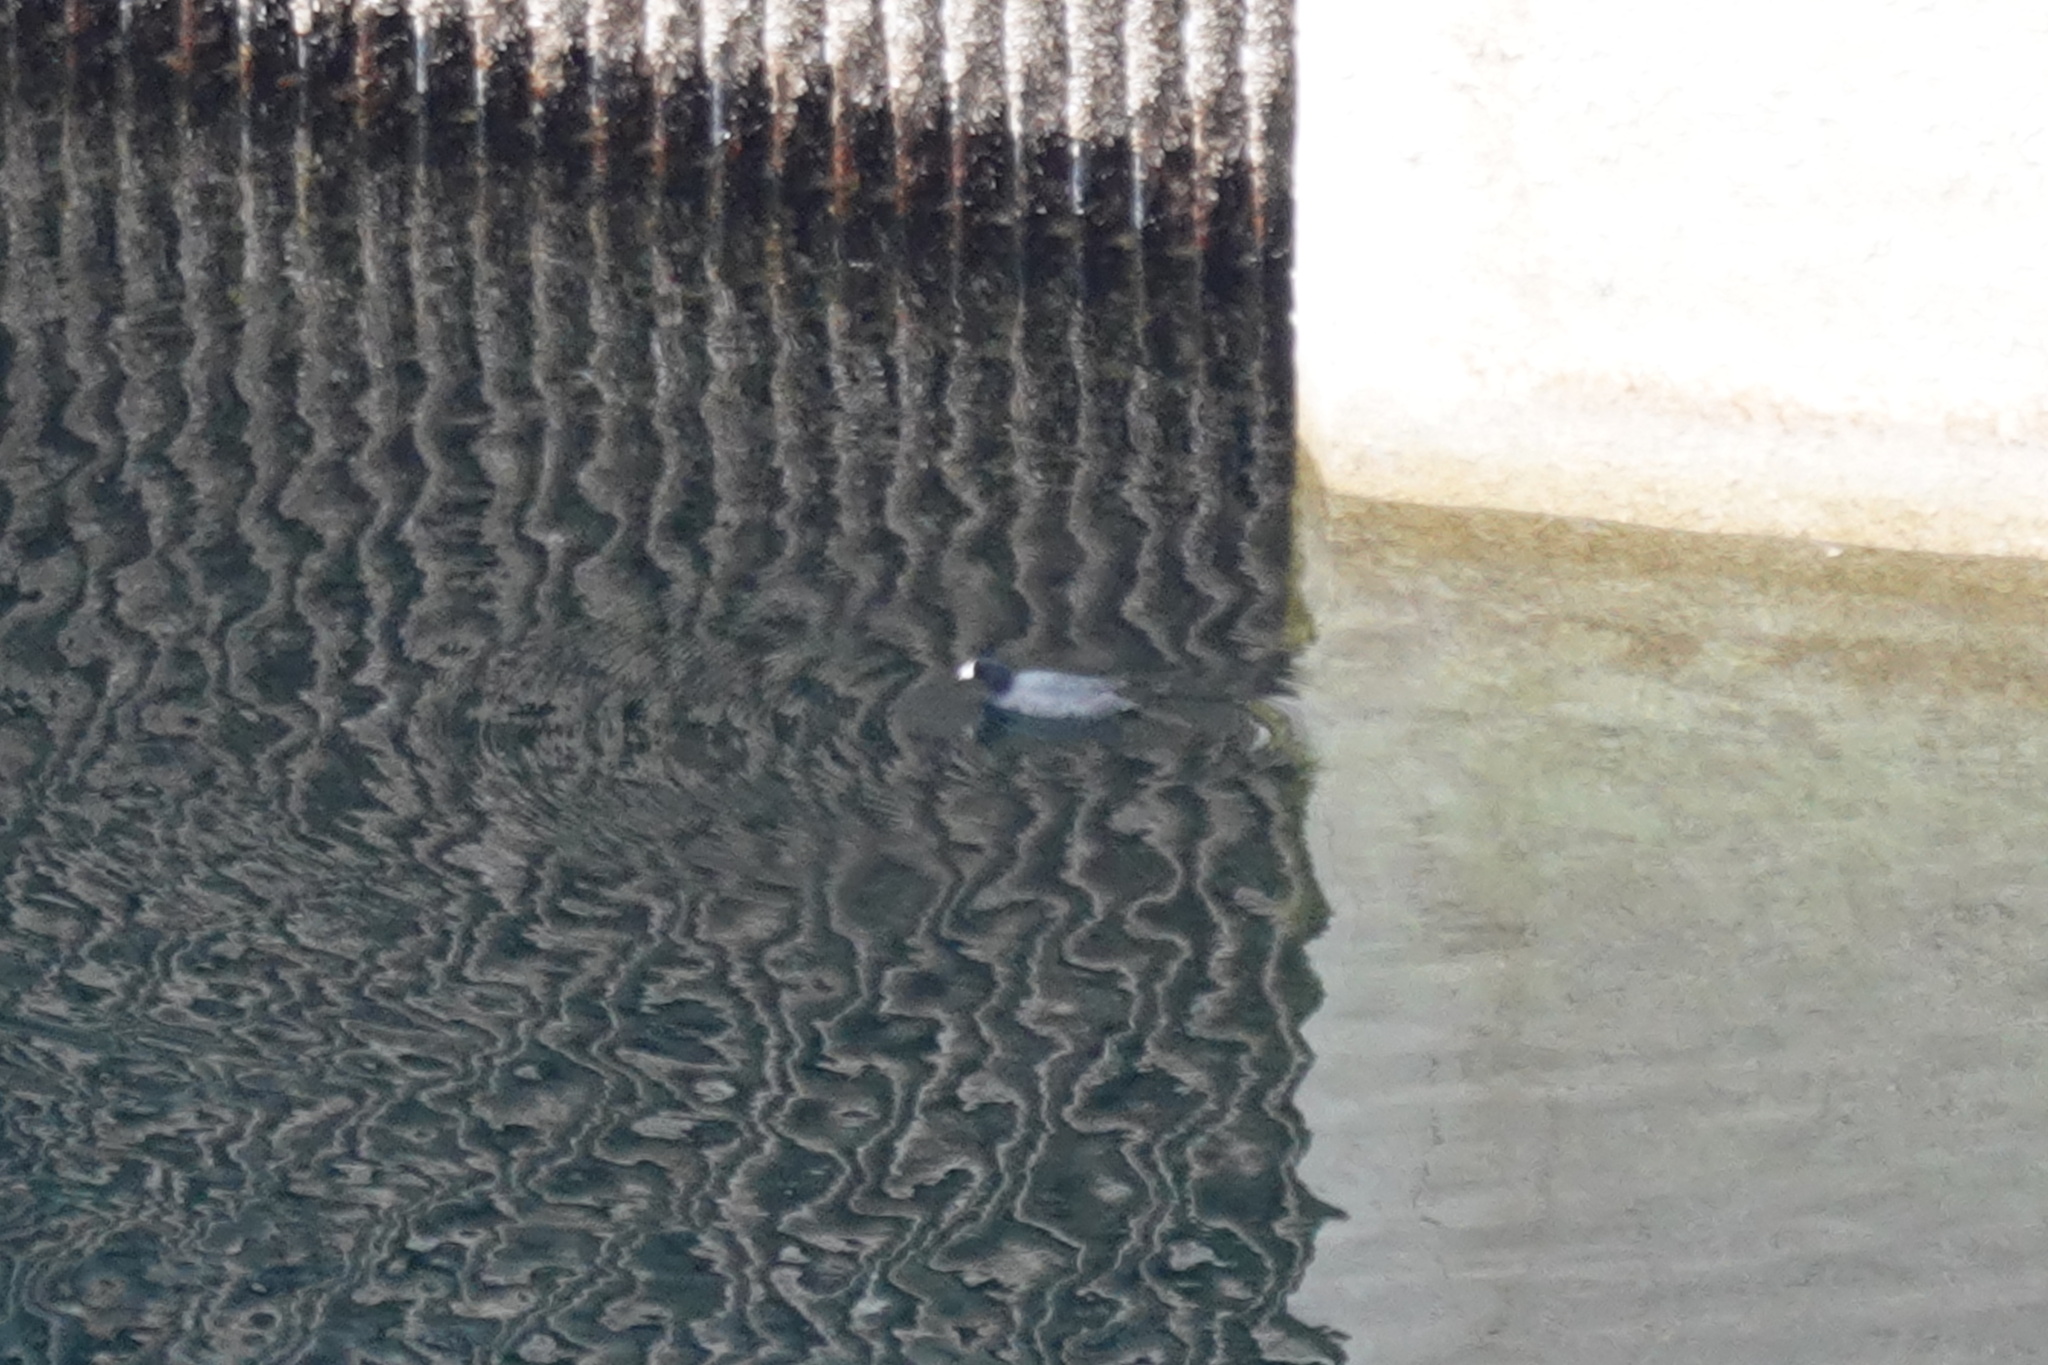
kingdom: Animalia
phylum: Chordata
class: Aves
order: Gruiformes
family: Rallidae
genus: Fulica
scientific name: Fulica americana
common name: American coot
